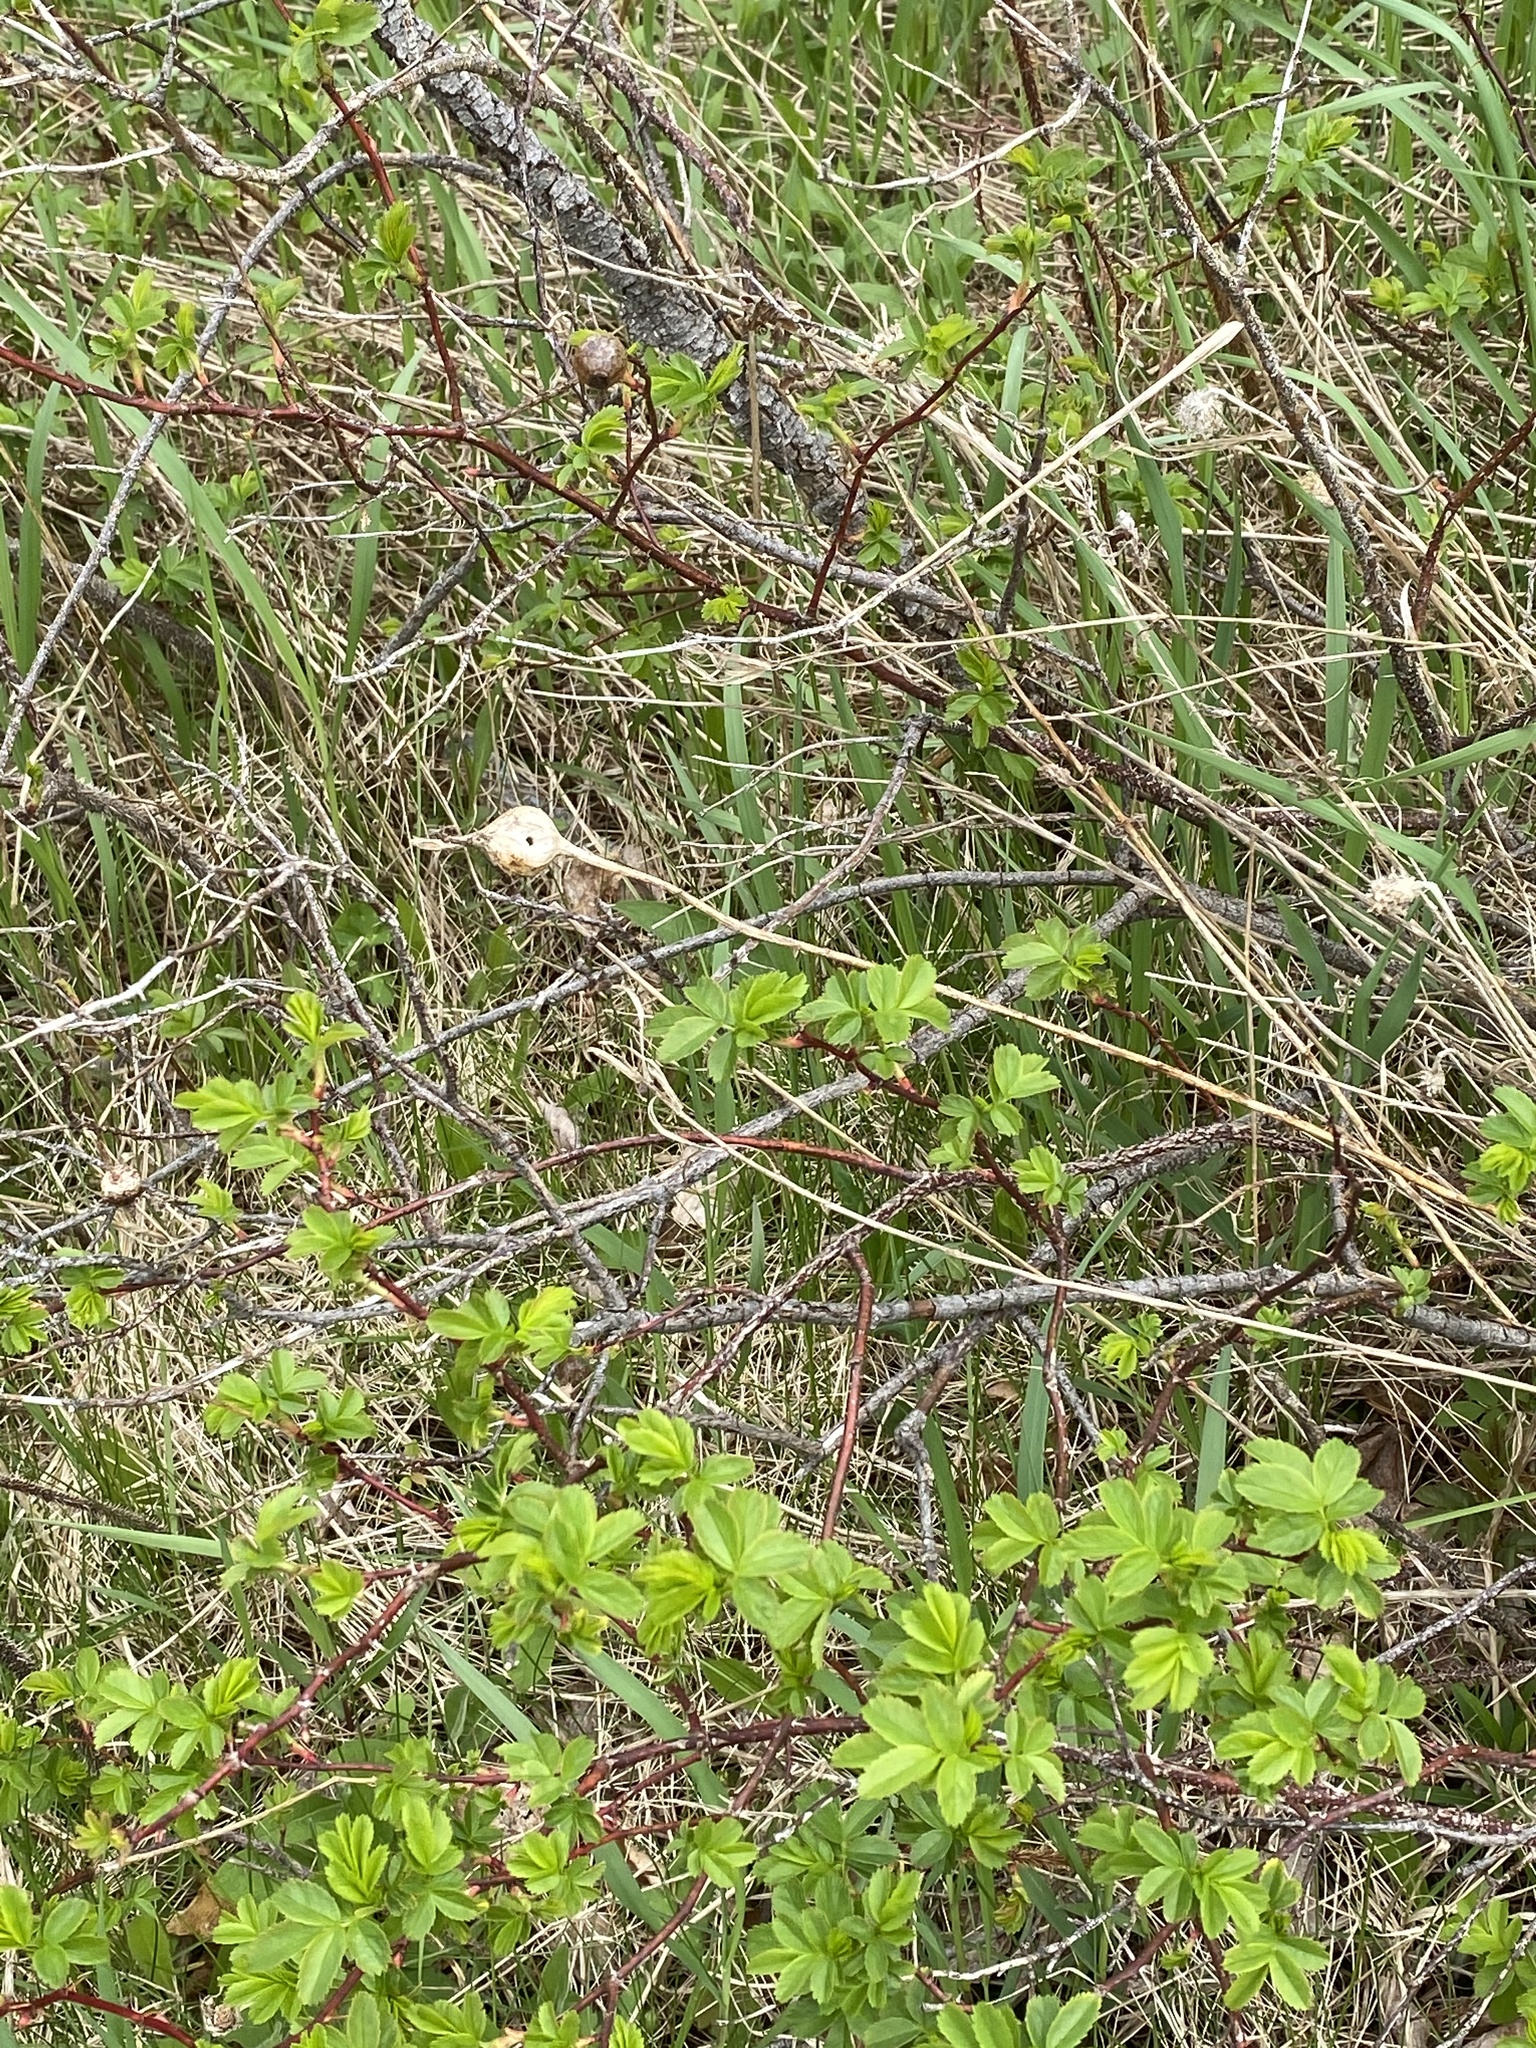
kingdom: Animalia
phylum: Arthropoda
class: Insecta
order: Diptera
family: Tephritidae
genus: Eurosta
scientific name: Eurosta solidaginis
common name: Goldenrod gall fly
